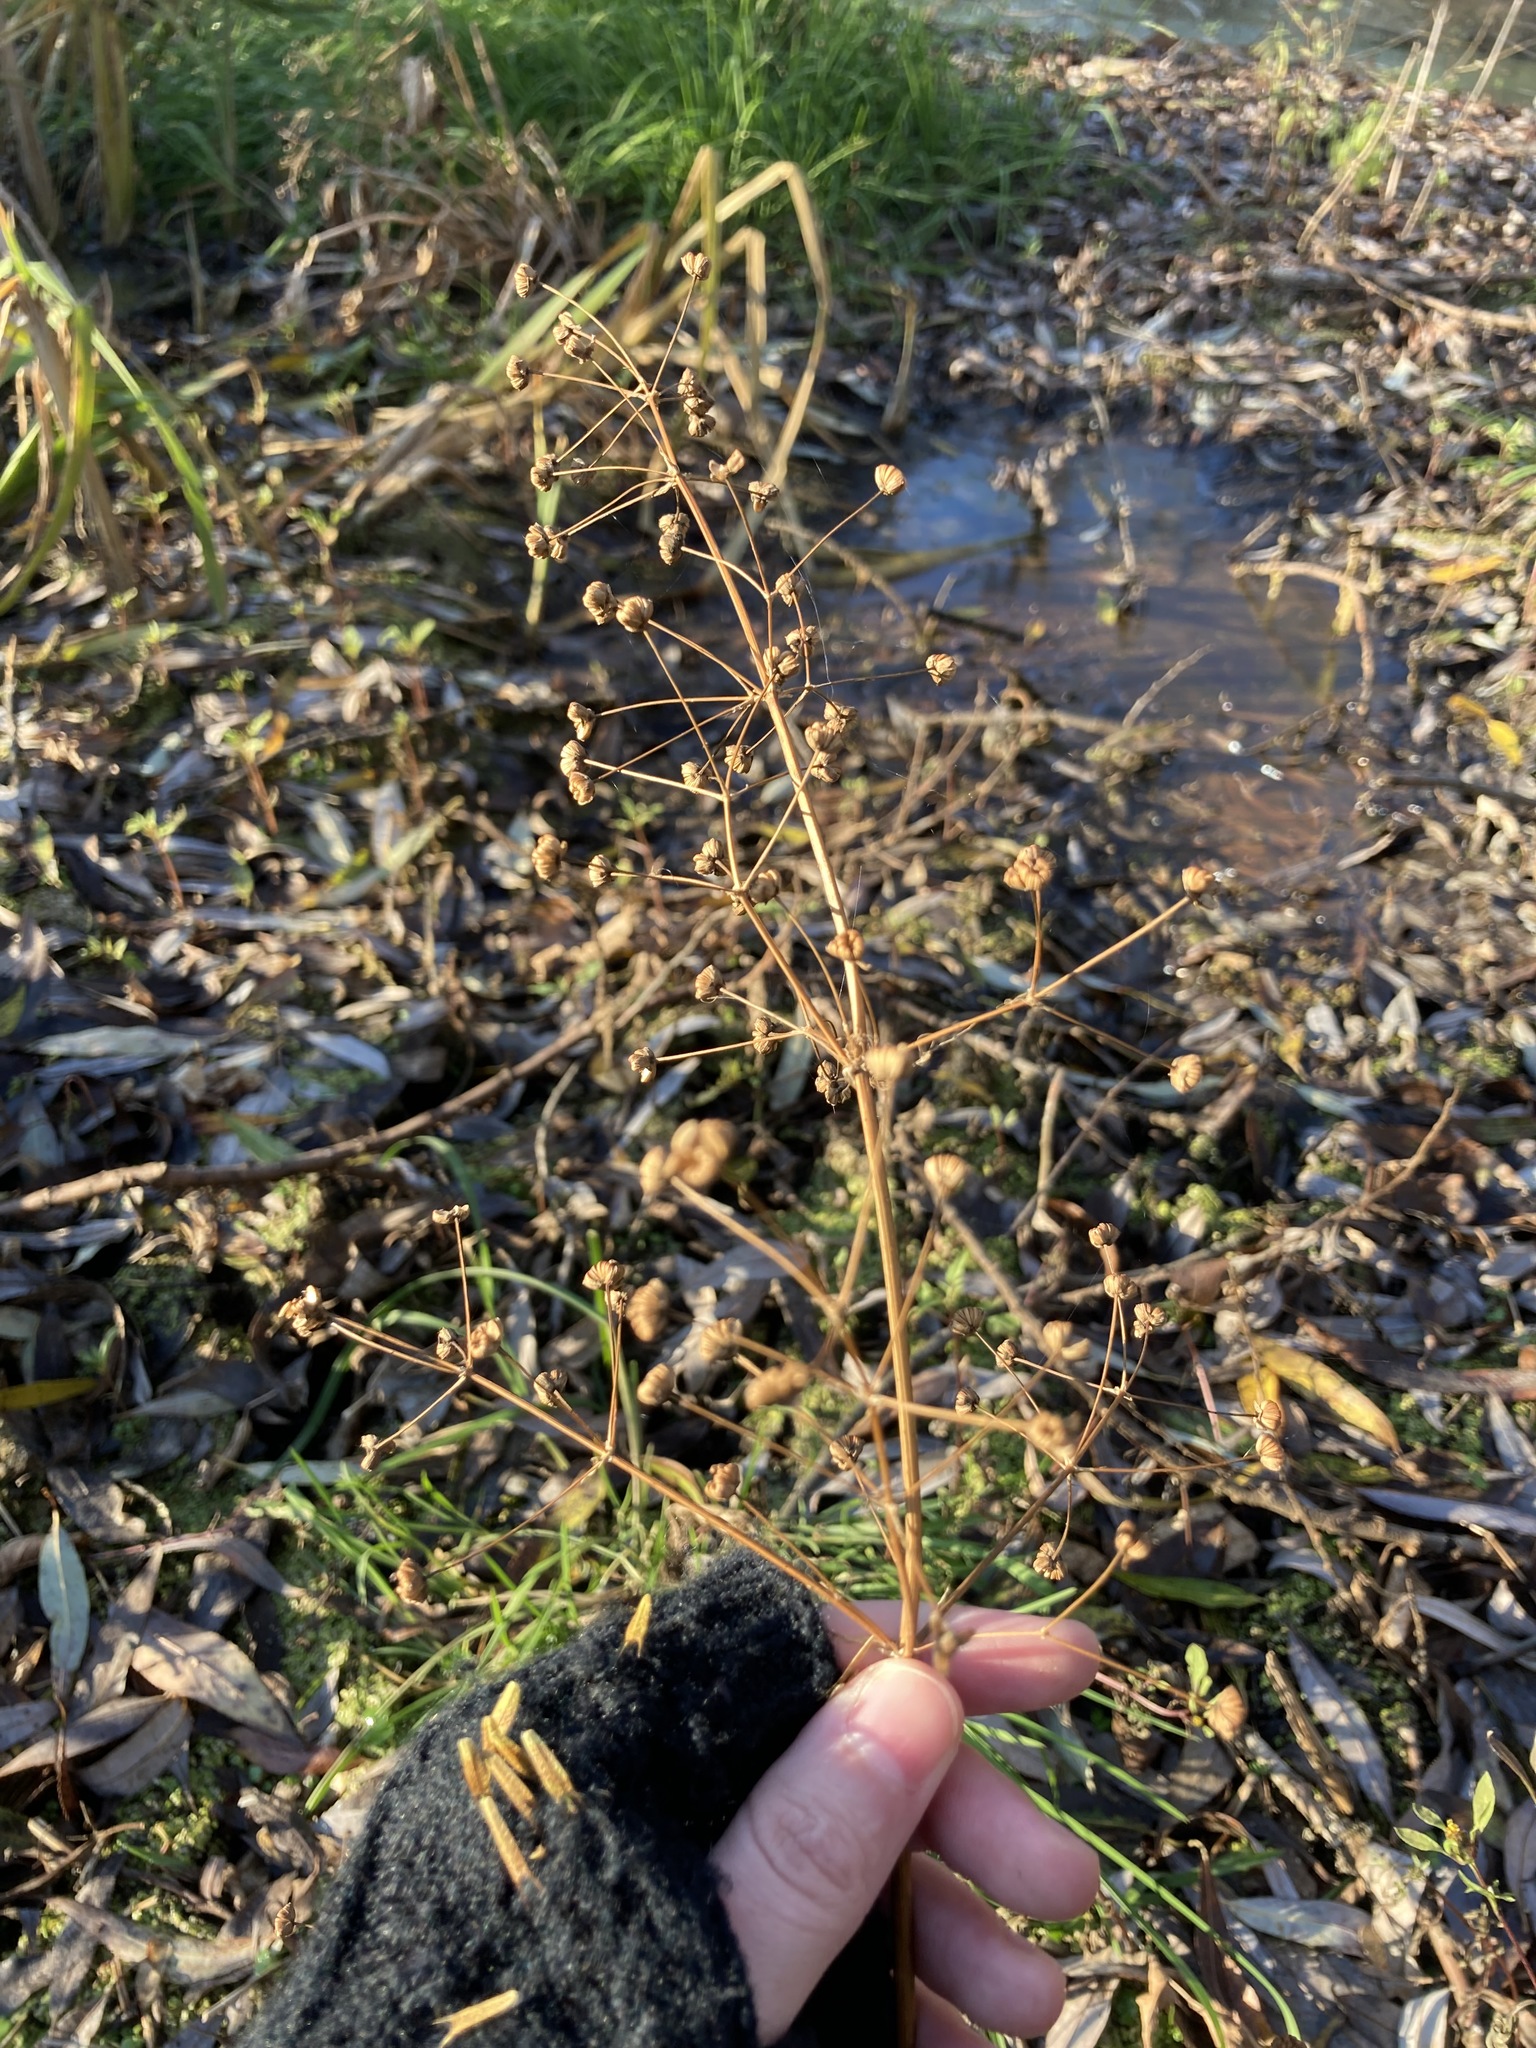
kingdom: Plantae
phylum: Tracheophyta
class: Liliopsida
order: Alismatales
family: Alismataceae
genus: Alisma
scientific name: Alisma plantago-aquatica
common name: Water-plantain
